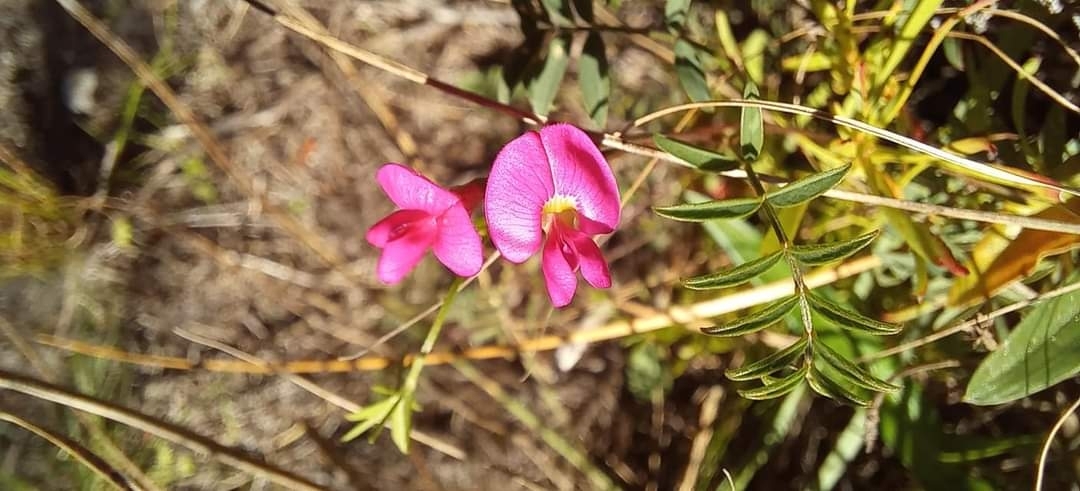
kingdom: Plantae
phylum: Tracheophyta
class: Magnoliopsida
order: Fabales
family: Fabaceae
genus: Tephrosia
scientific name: Tephrosia capensis
